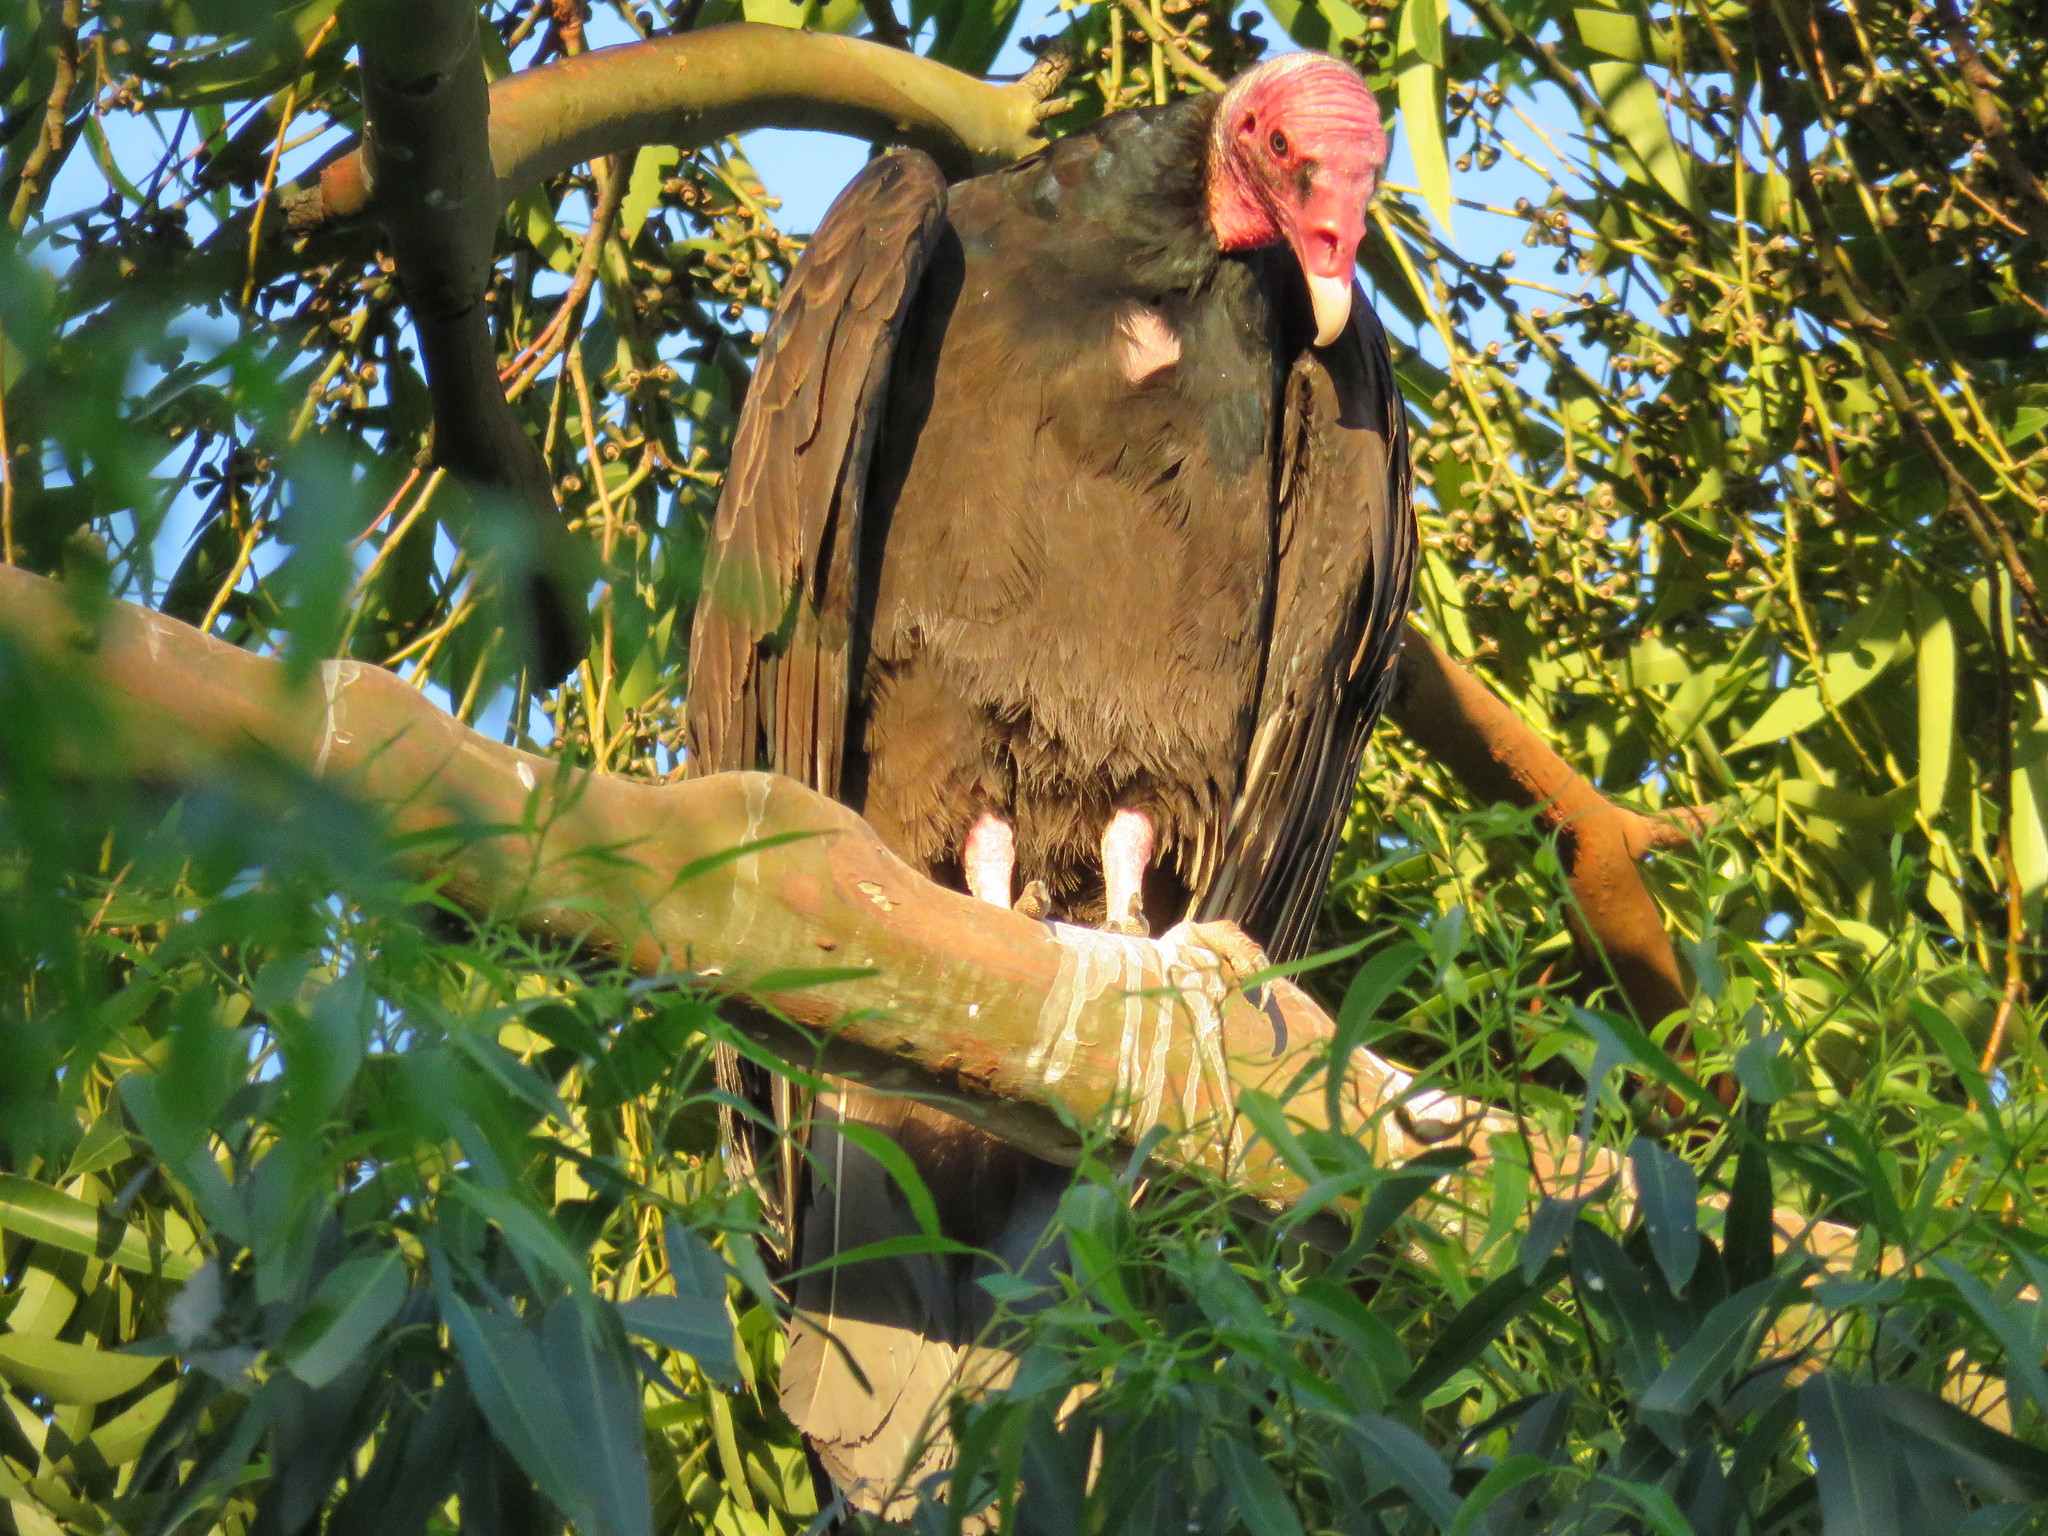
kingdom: Animalia
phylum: Chordata
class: Aves
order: Accipitriformes
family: Cathartidae
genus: Cathartes
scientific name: Cathartes aura
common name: Turkey vulture
